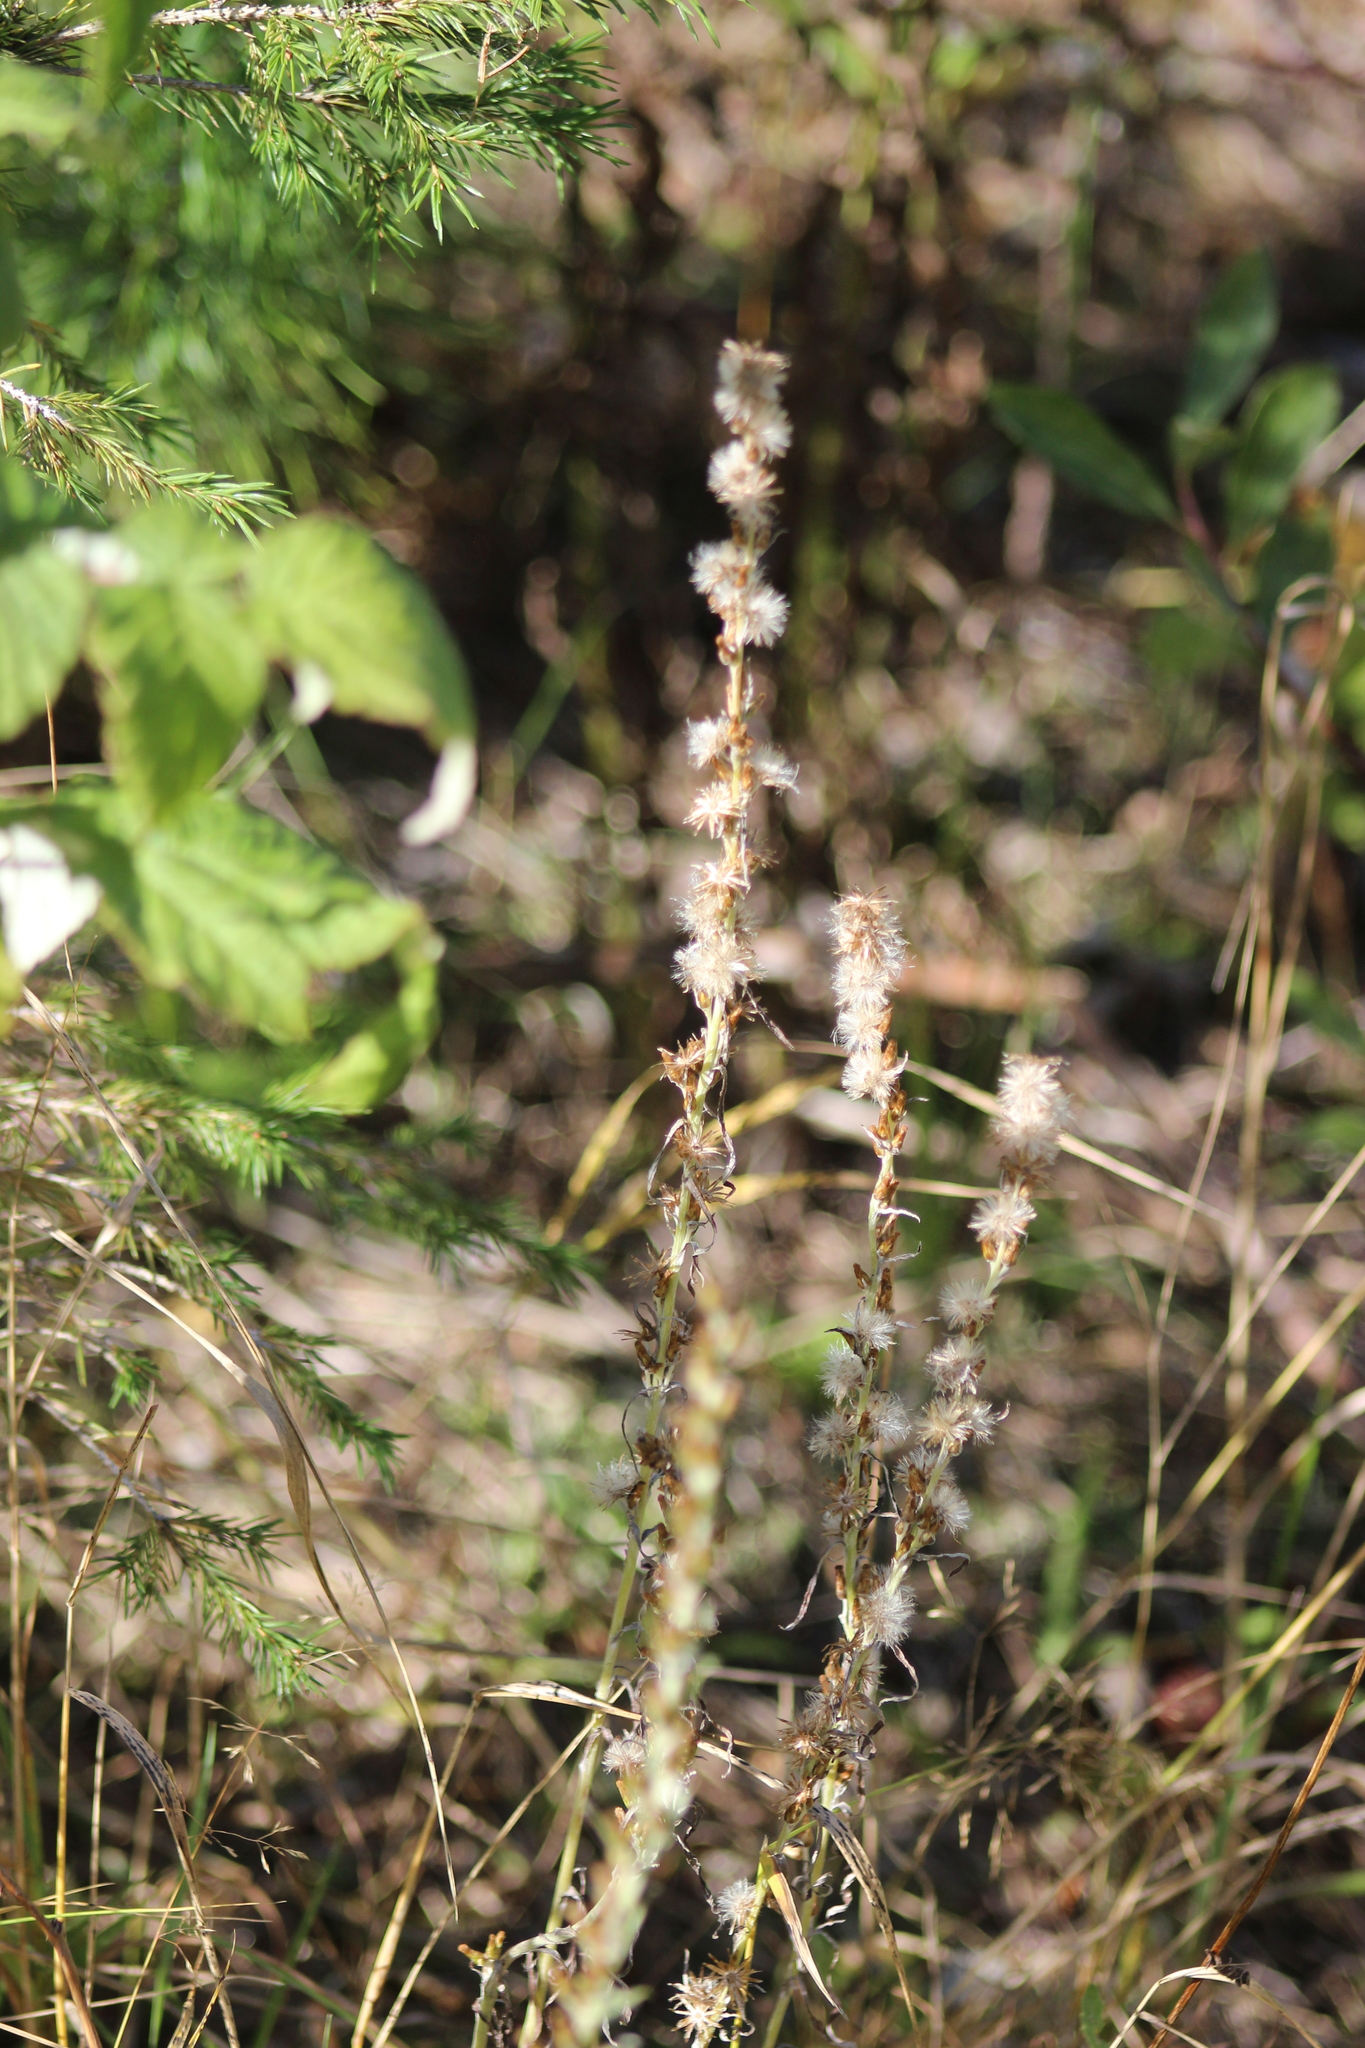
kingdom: Plantae
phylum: Tracheophyta
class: Magnoliopsida
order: Asterales
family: Asteraceae
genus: Omalotheca
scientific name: Omalotheca sylvatica
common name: Heath cudweed
